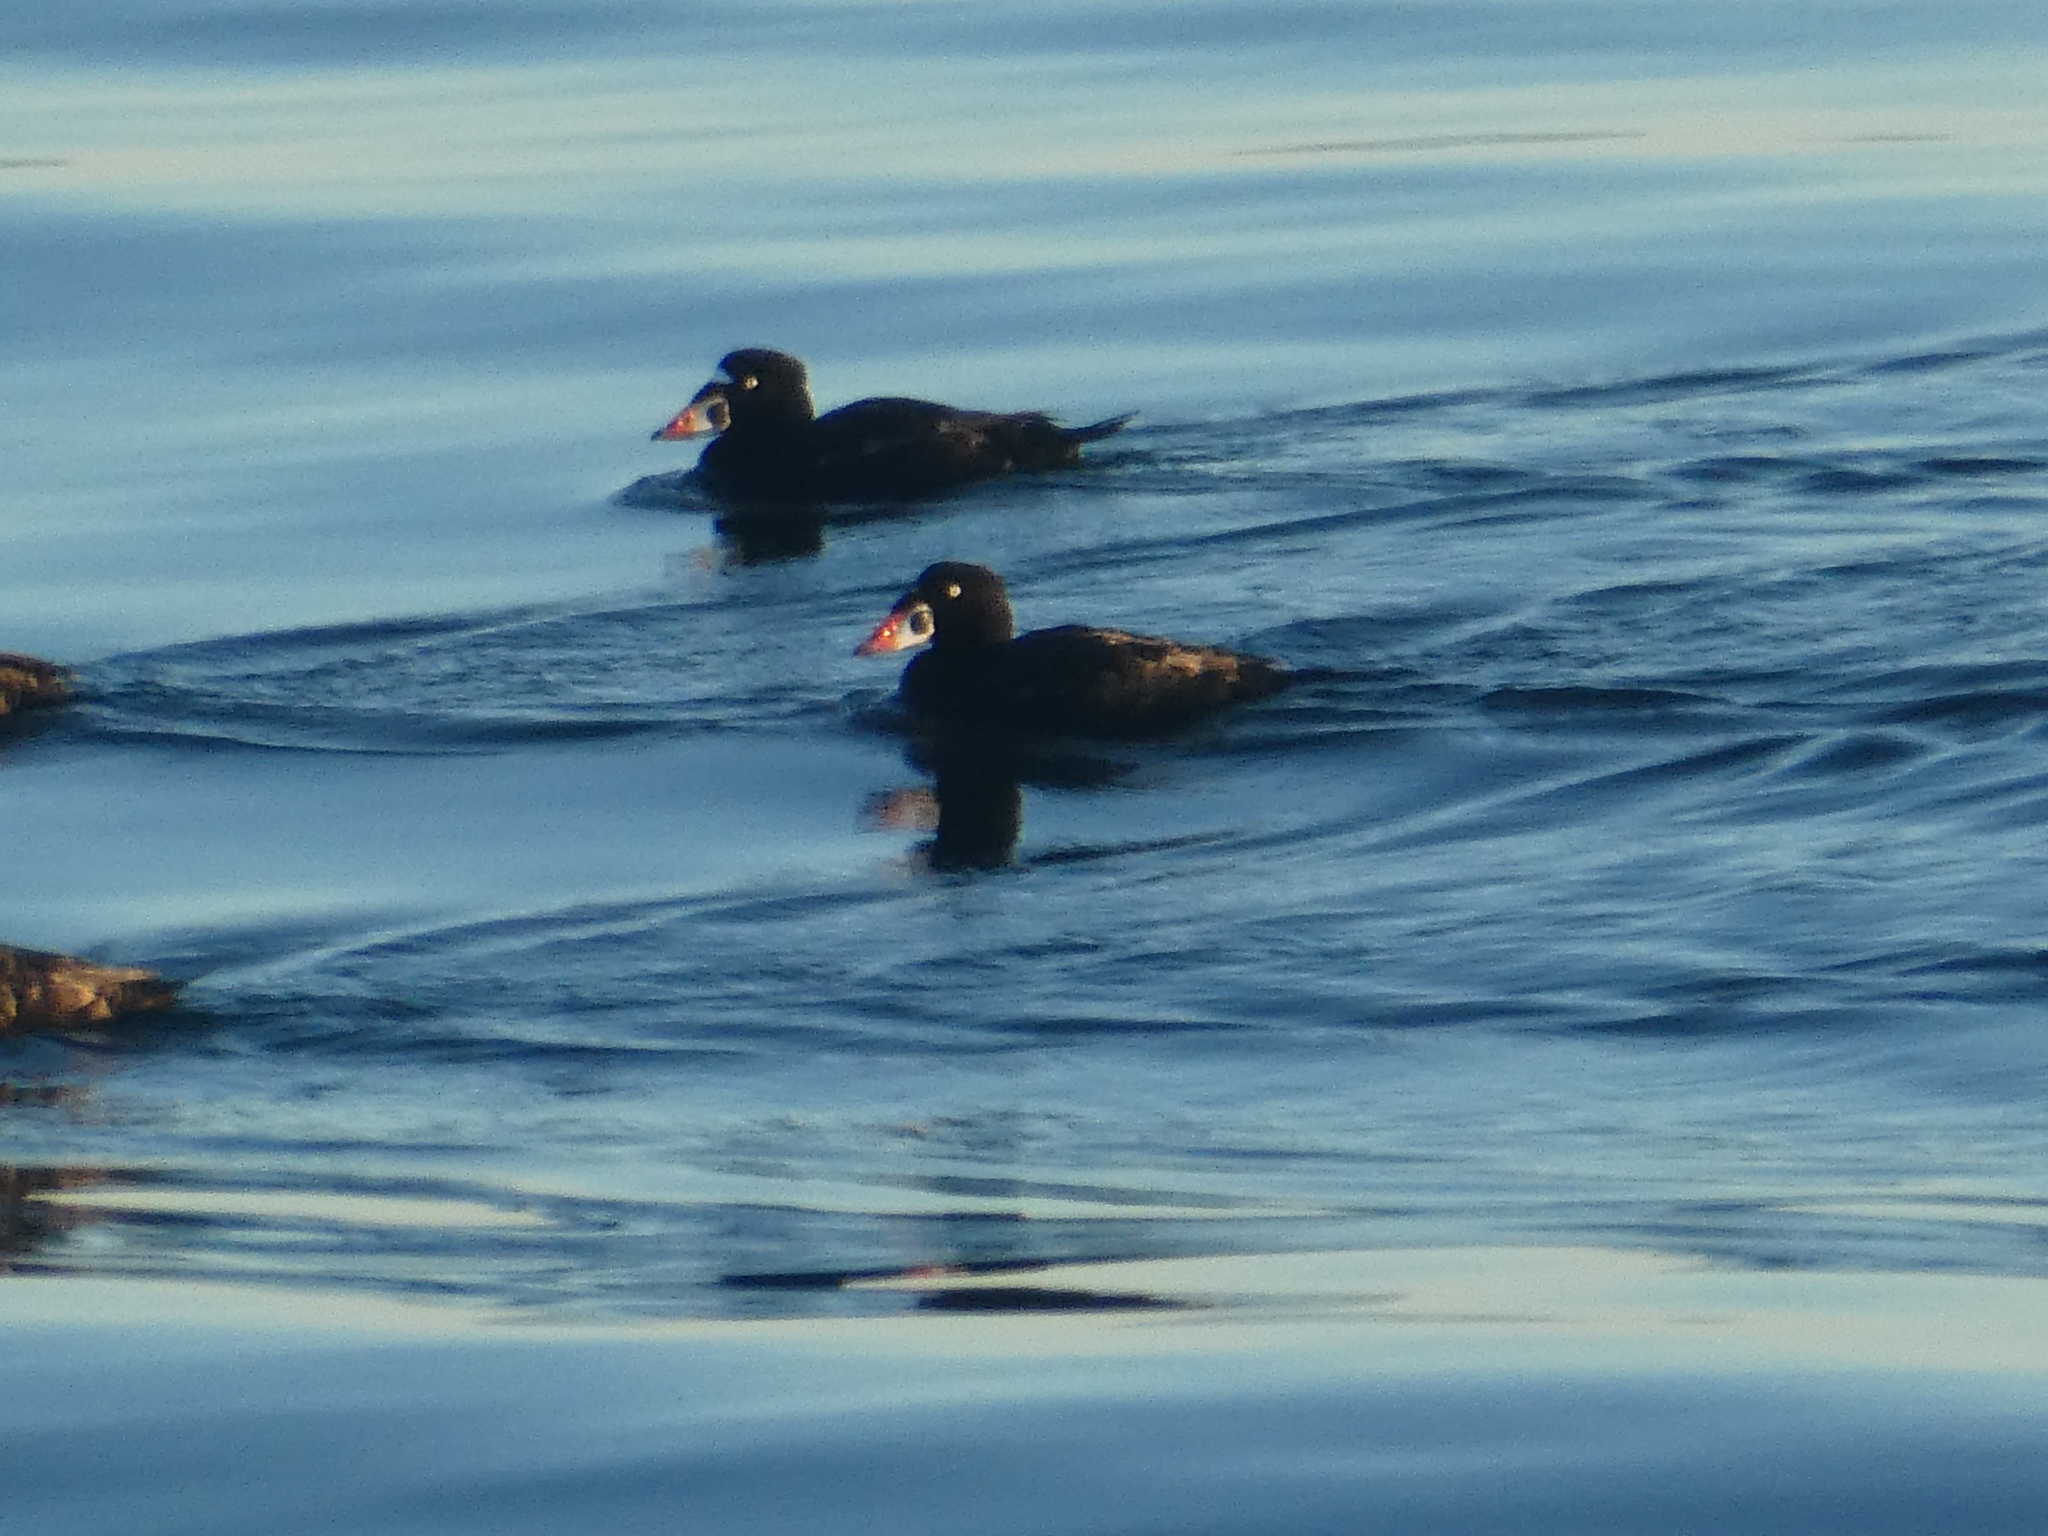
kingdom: Animalia
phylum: Chordata
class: Aves
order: Anseriformes
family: Anatidae
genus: Melanitta
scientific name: Melanitta perspicillata
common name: Surf scoter
